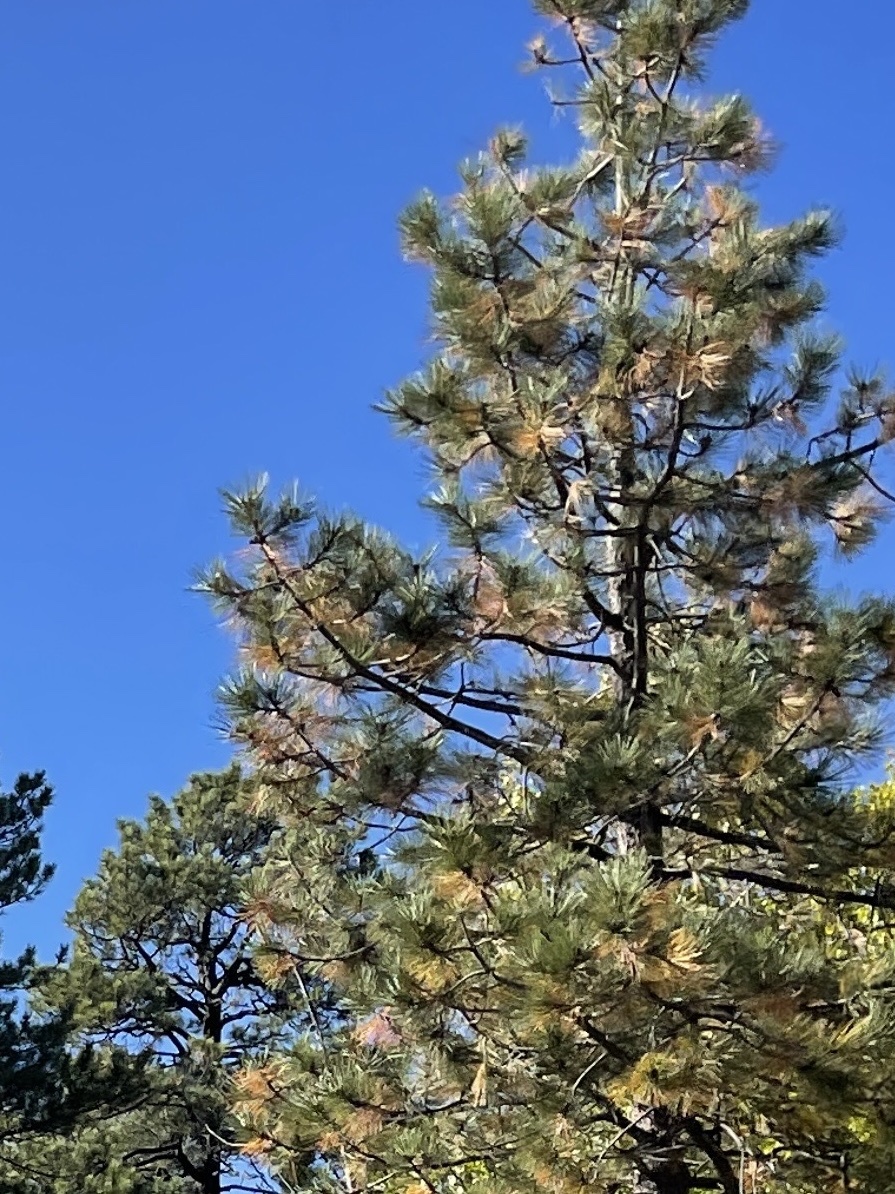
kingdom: Plantae
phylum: Tracheophyta
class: Pinopsida
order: Pinales
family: Pinaceae
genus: Pinus
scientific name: Pinus ponderosa
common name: Western yellow-pine
